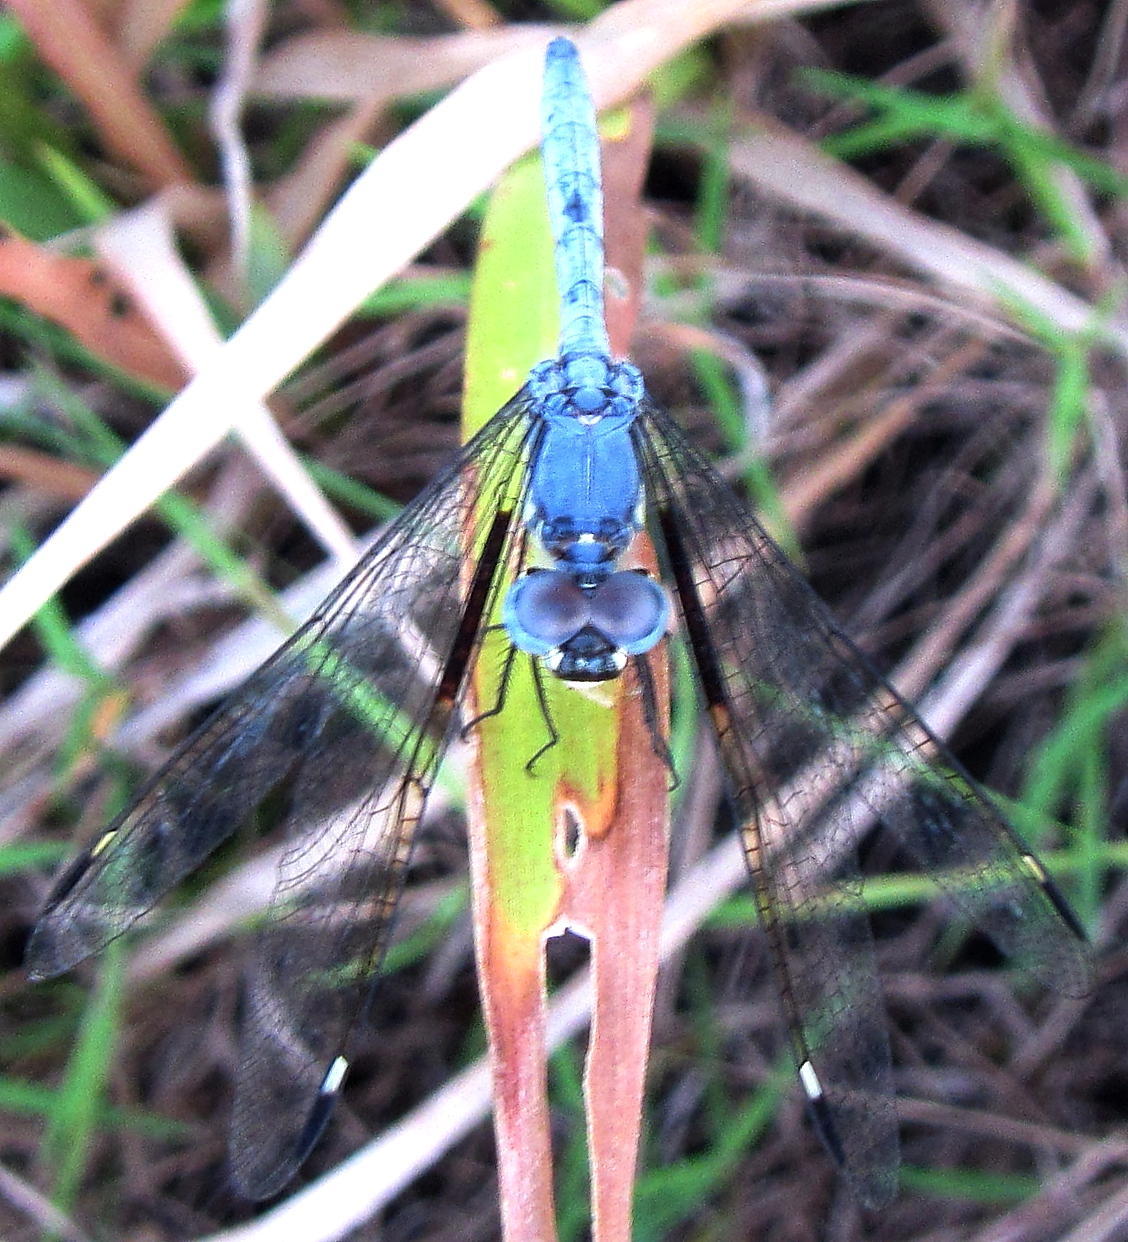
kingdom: Animalia
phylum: Arthropoda
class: Insecta
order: Odonata
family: Libellulidae
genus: Hemistigma
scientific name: Hemistigma albipunctum
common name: African pied-spot
